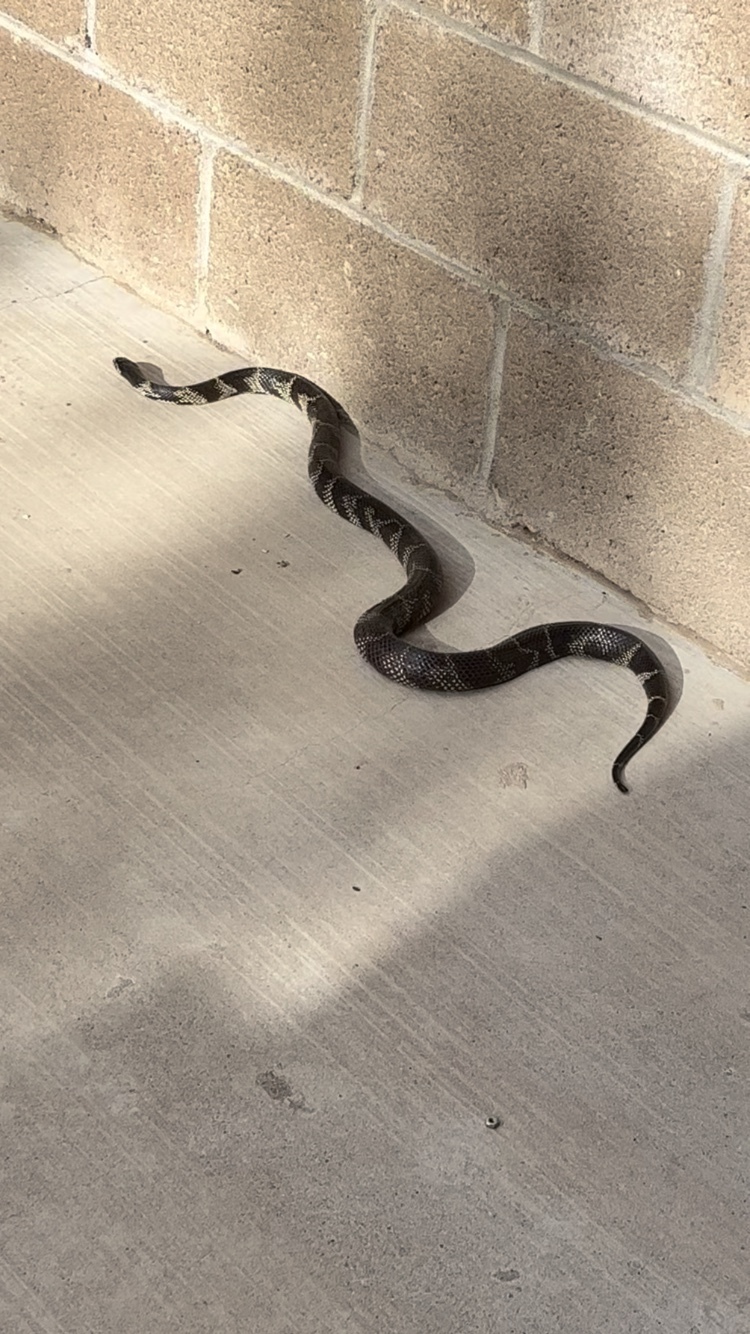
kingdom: Animalia
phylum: Chordata
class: Squamata
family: Colubridae
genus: Lampropeltis
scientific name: Lampropeltis californiae
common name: California kingsnake
